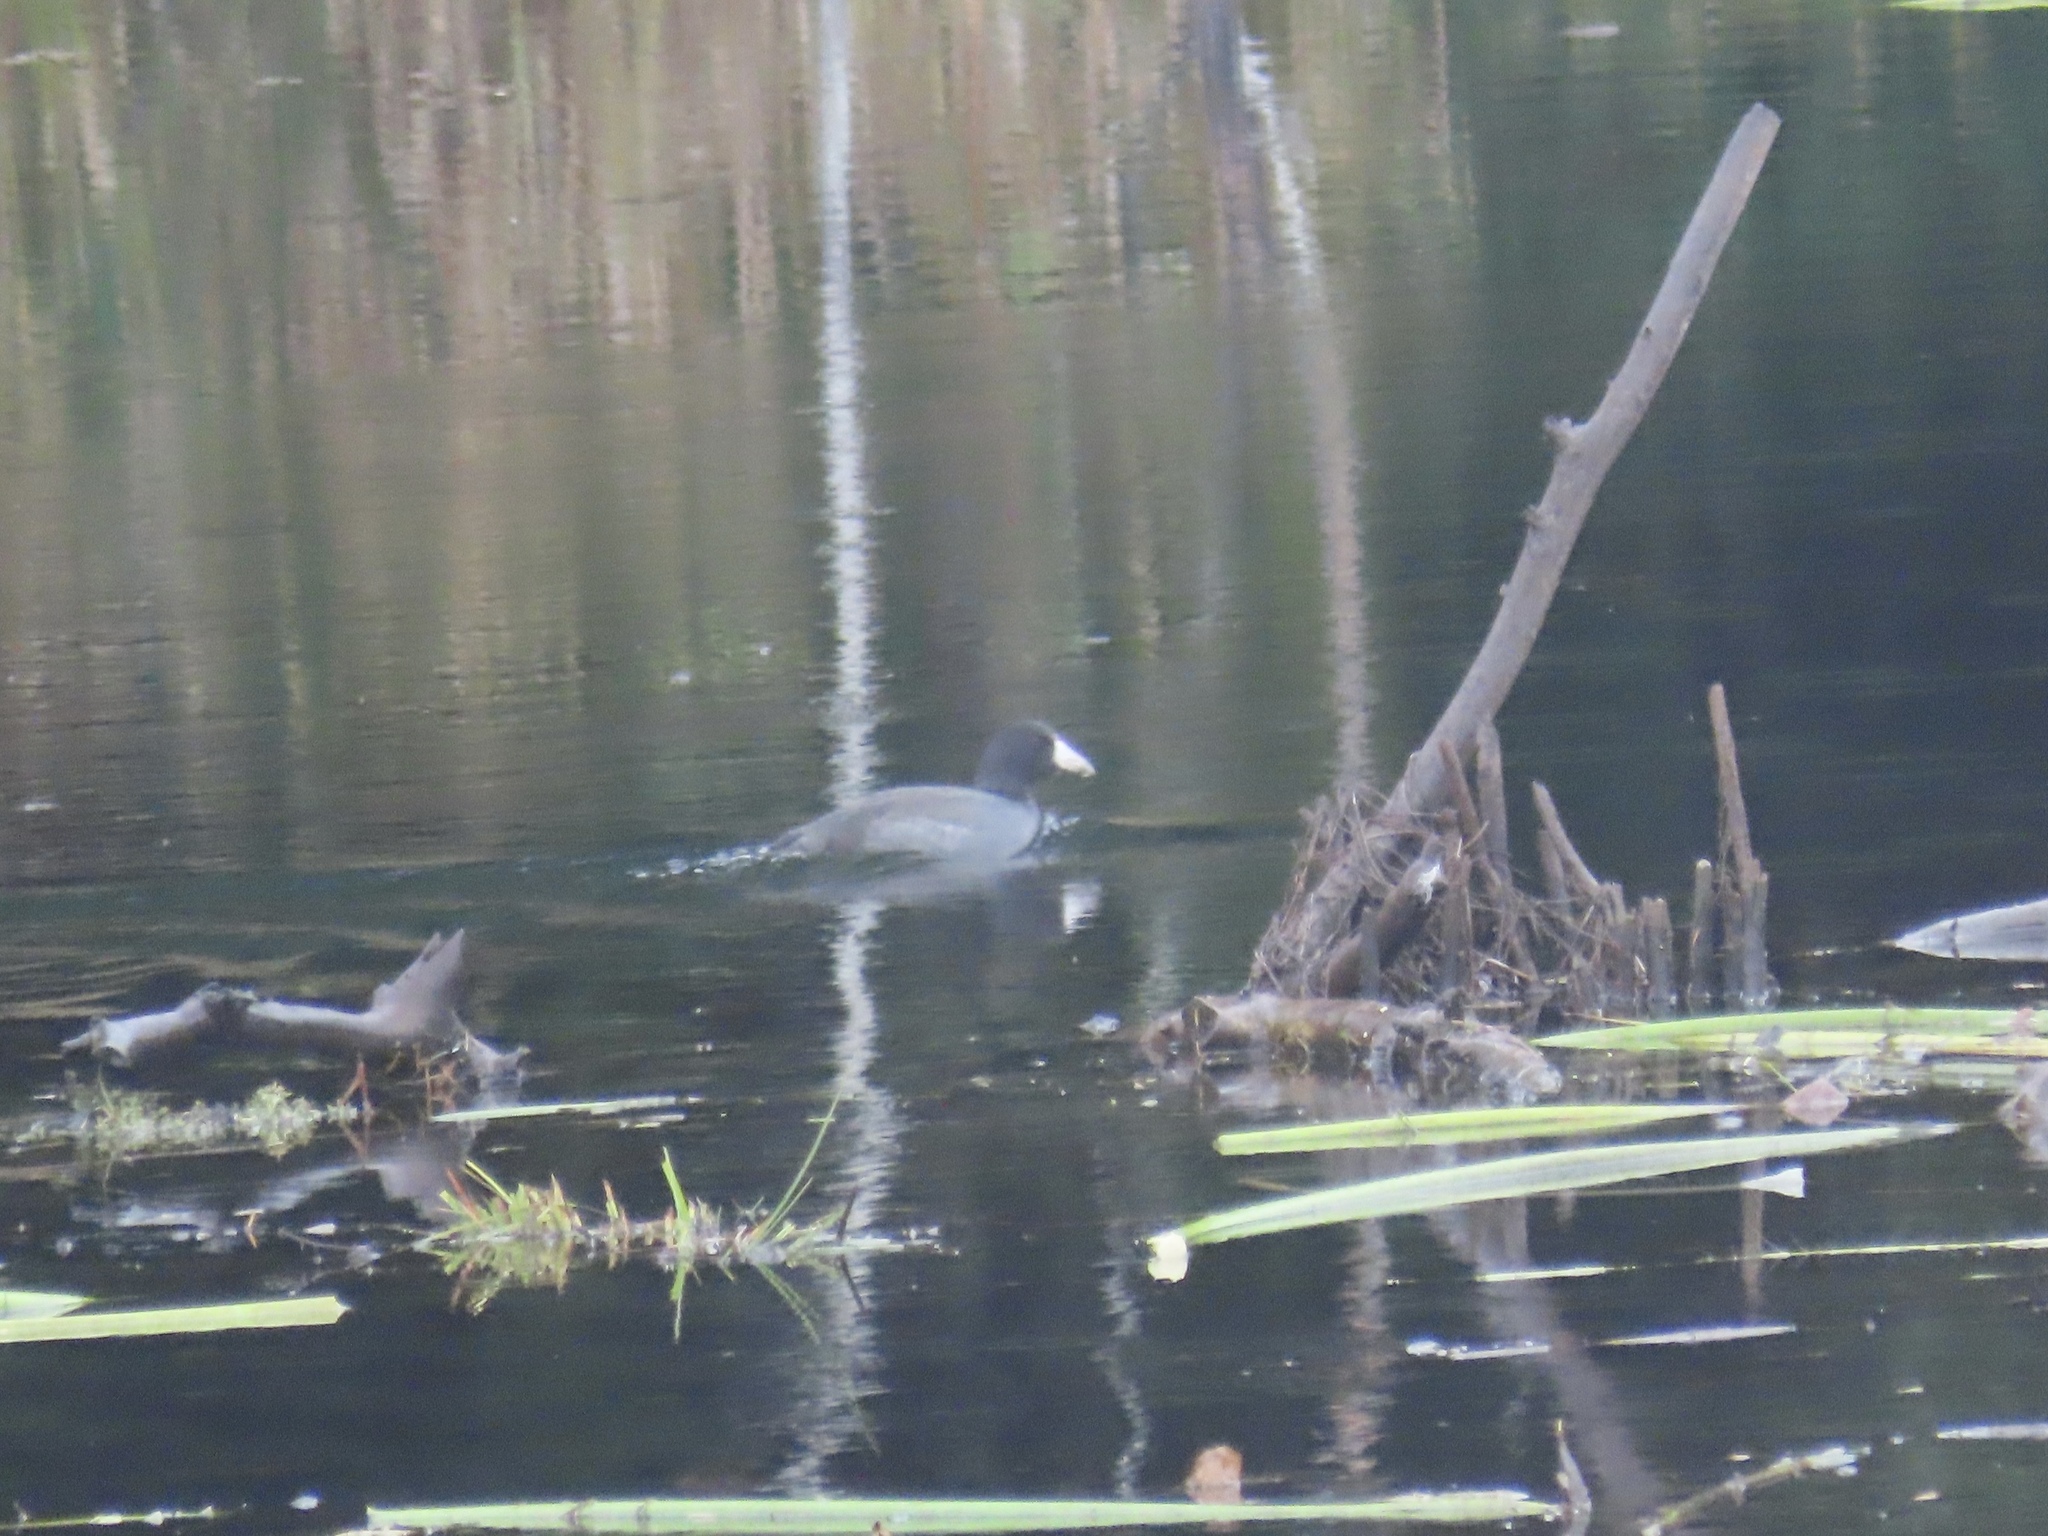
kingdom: Animalia
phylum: Chordata
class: Aves
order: Gruiformes
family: Rallidae
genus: Fulica
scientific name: Fulica americana
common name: American coot
